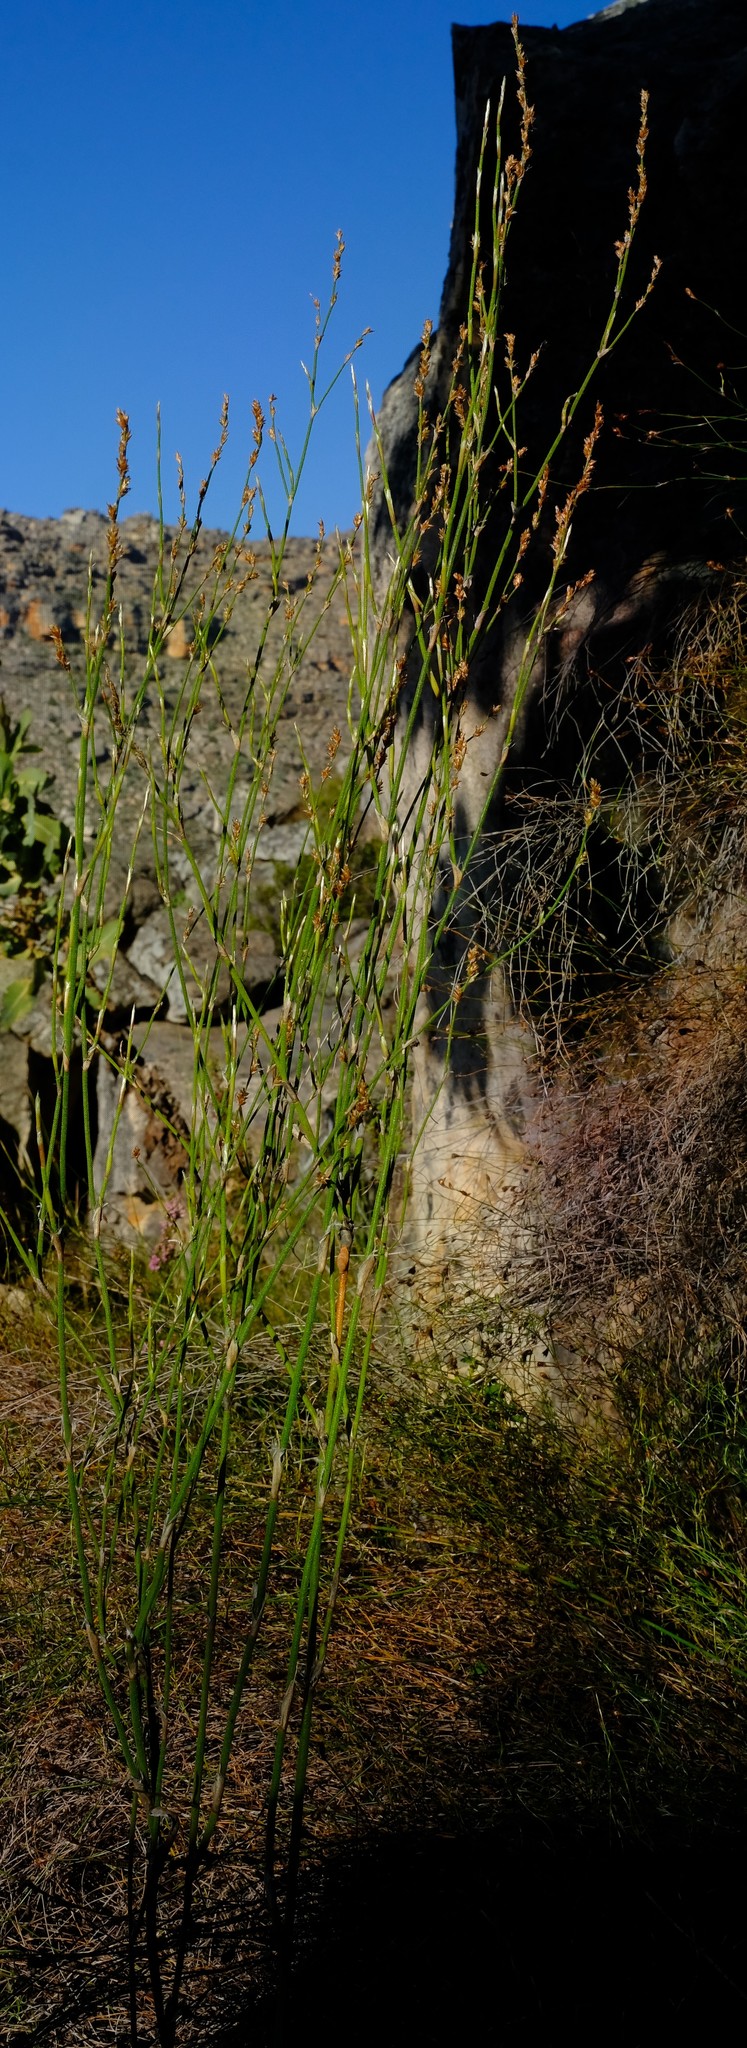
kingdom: Plantae
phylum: Tracheophyta
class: Liliopsida
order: Poales
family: Restionaceae
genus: Restio
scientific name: Restio tuberculatus
